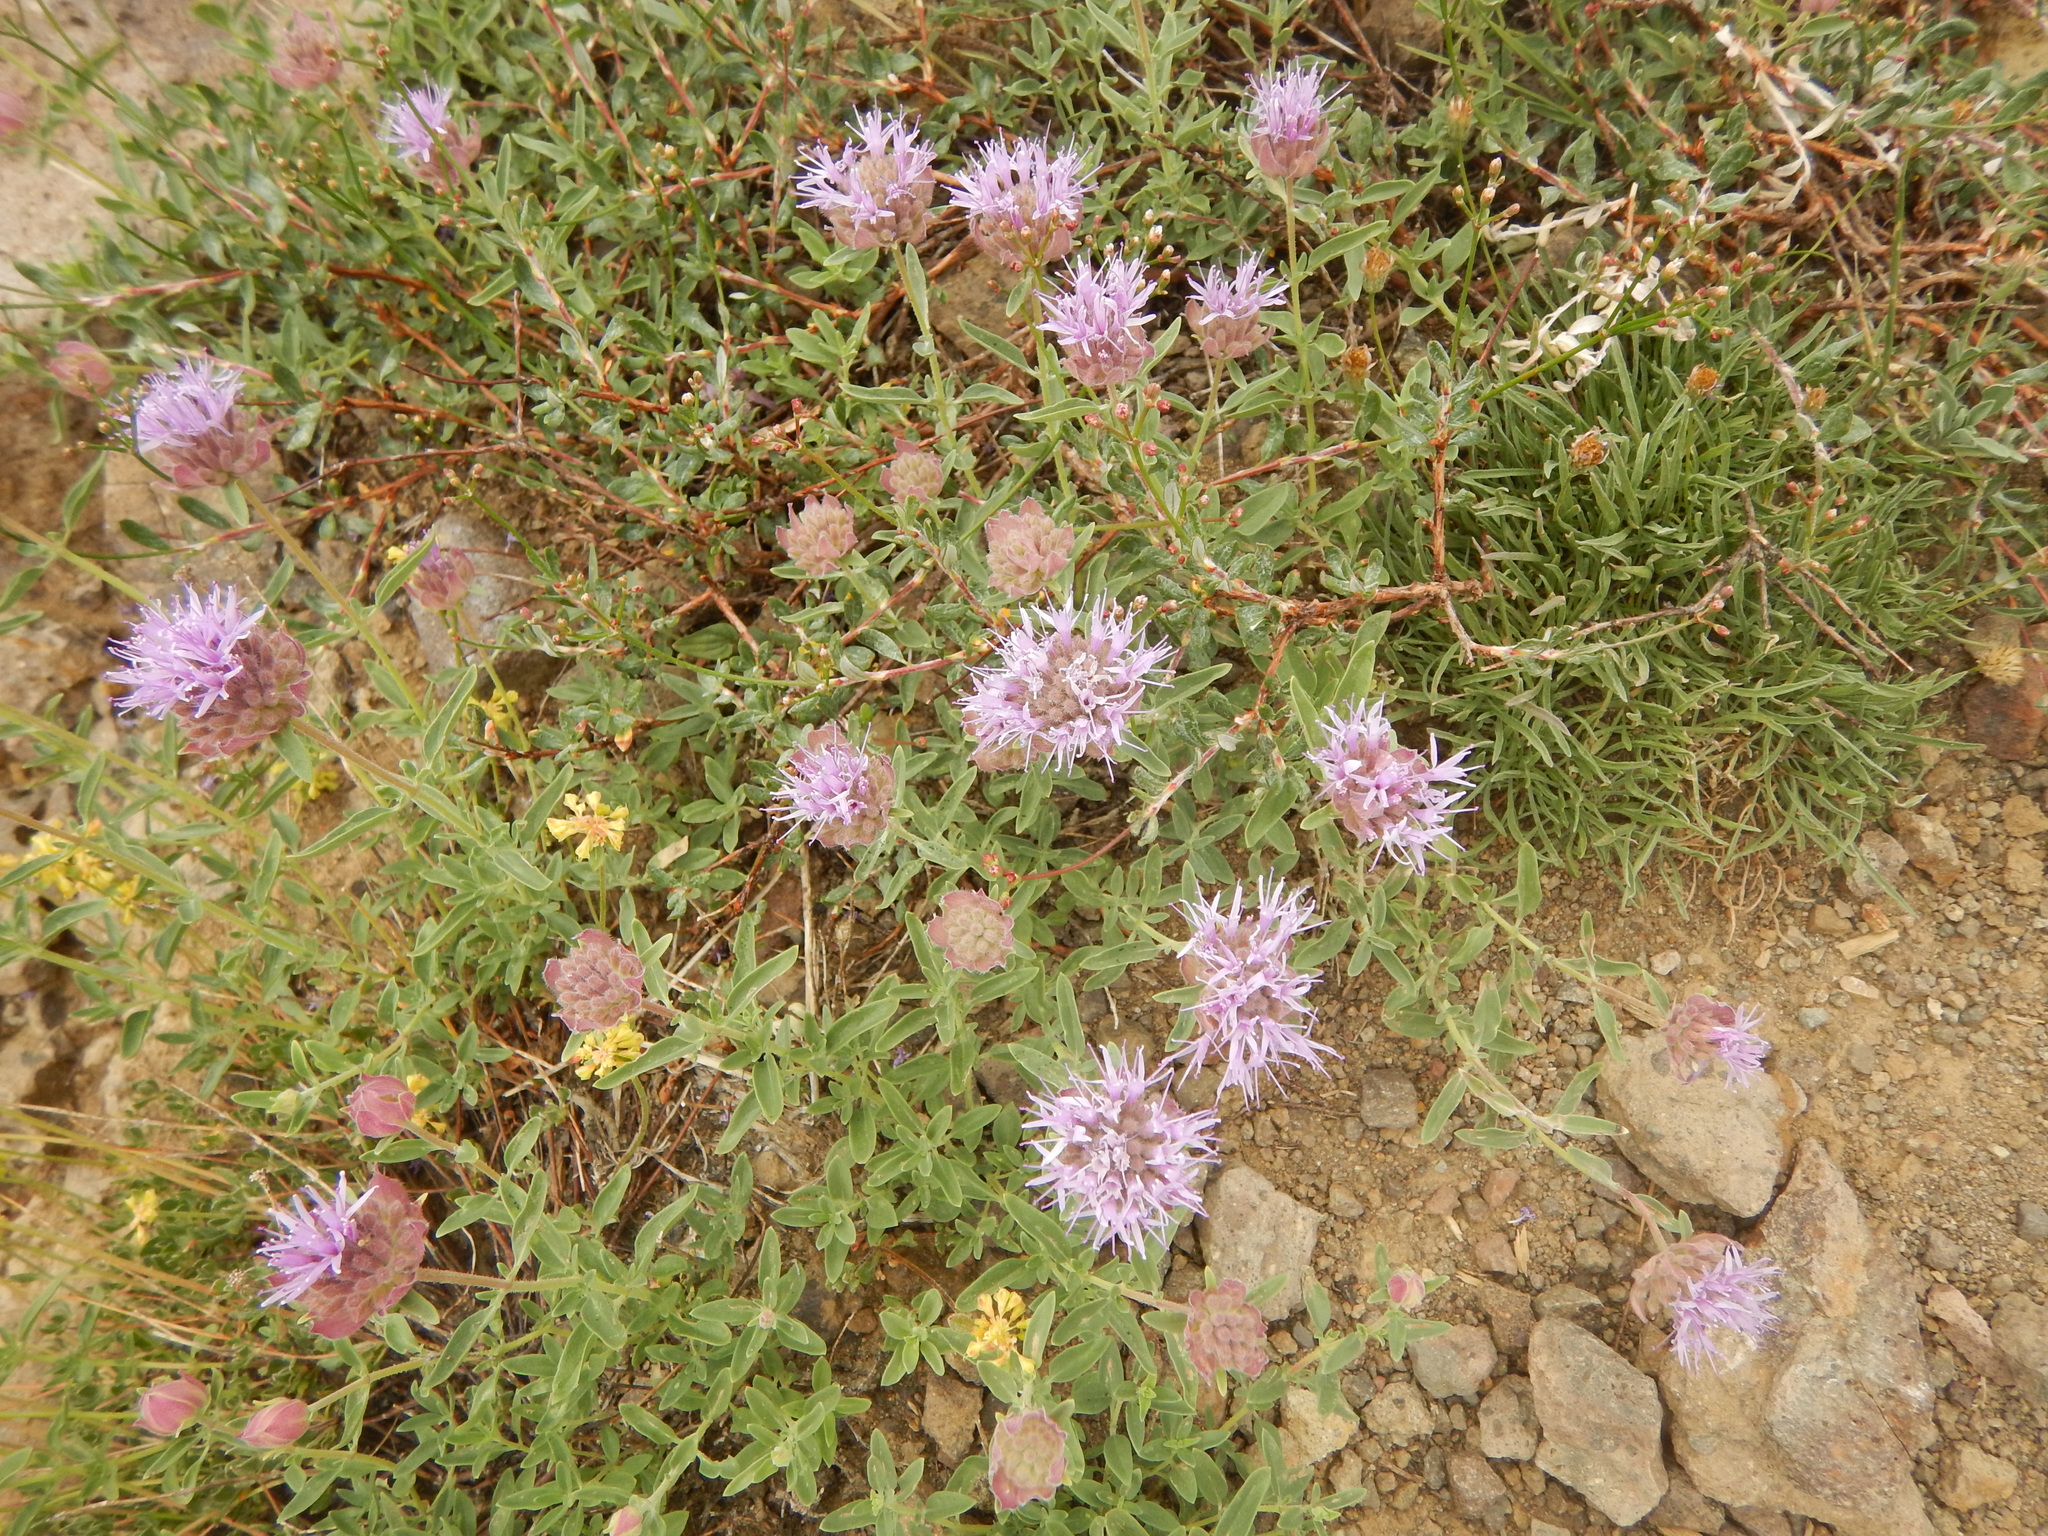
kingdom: Plantae
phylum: Tracheophyta
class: Magnoliopsida
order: Lamiales
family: Lamiaceae
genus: Monardella
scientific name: Monardella odoratissima
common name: Pacific monardella
